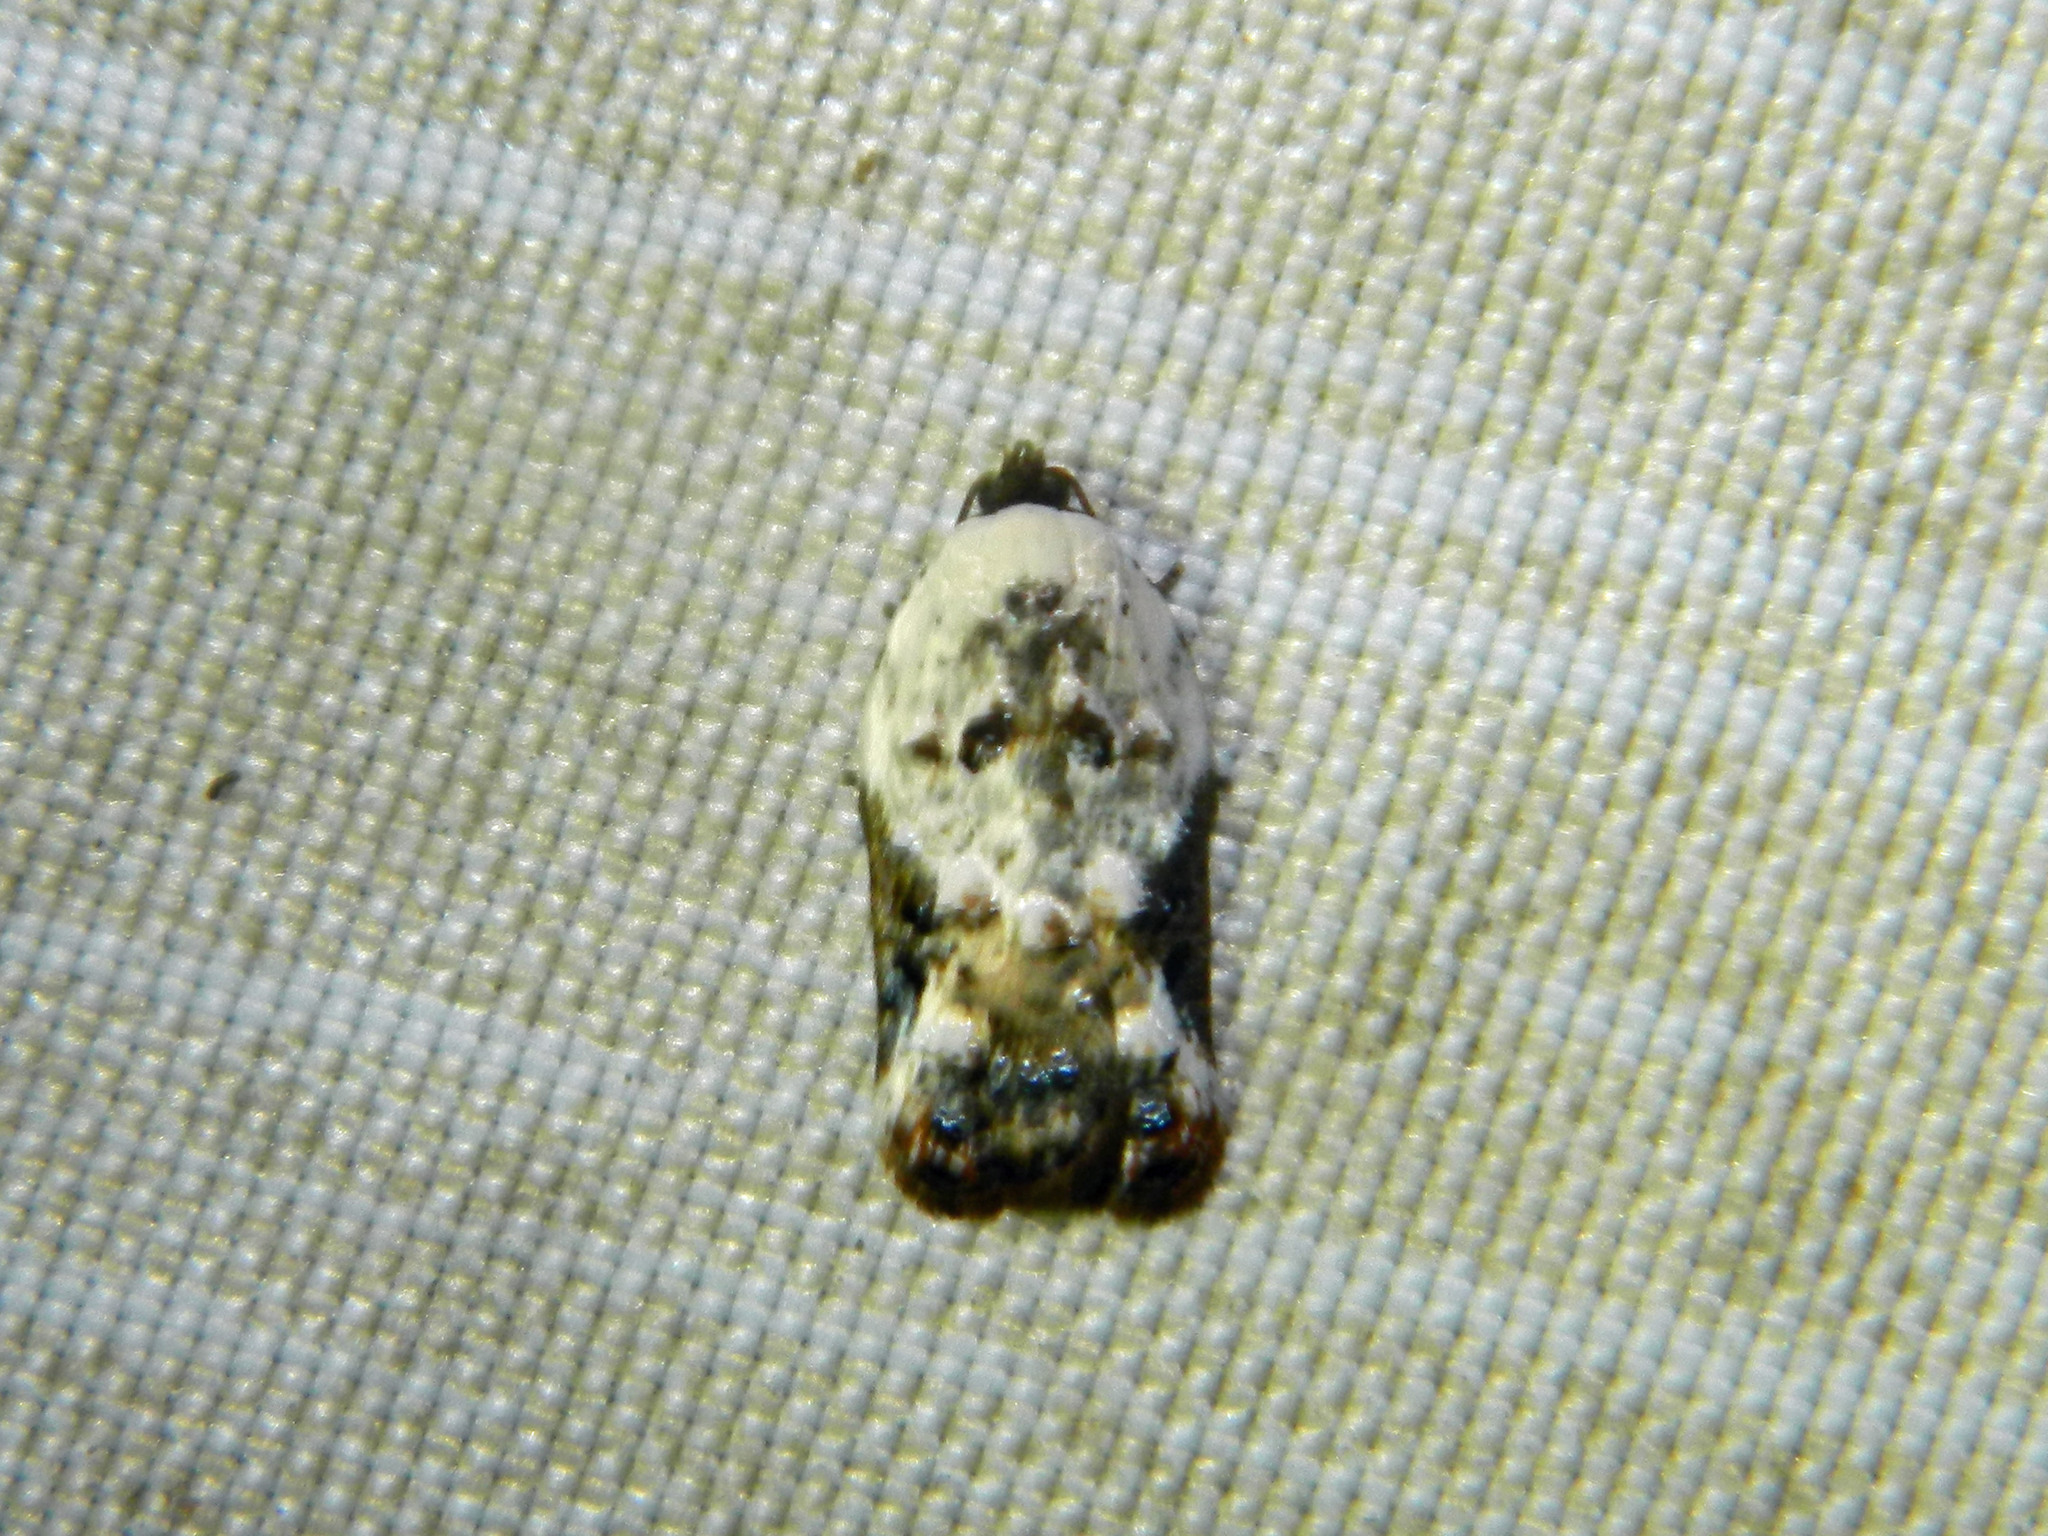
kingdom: Animalia
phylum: Arthropoda
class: Insecta
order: Lepidoptera
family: Tortricidae
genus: Acleris
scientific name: Acleris nivisellana
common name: Snowy-shouldered acleris moth
